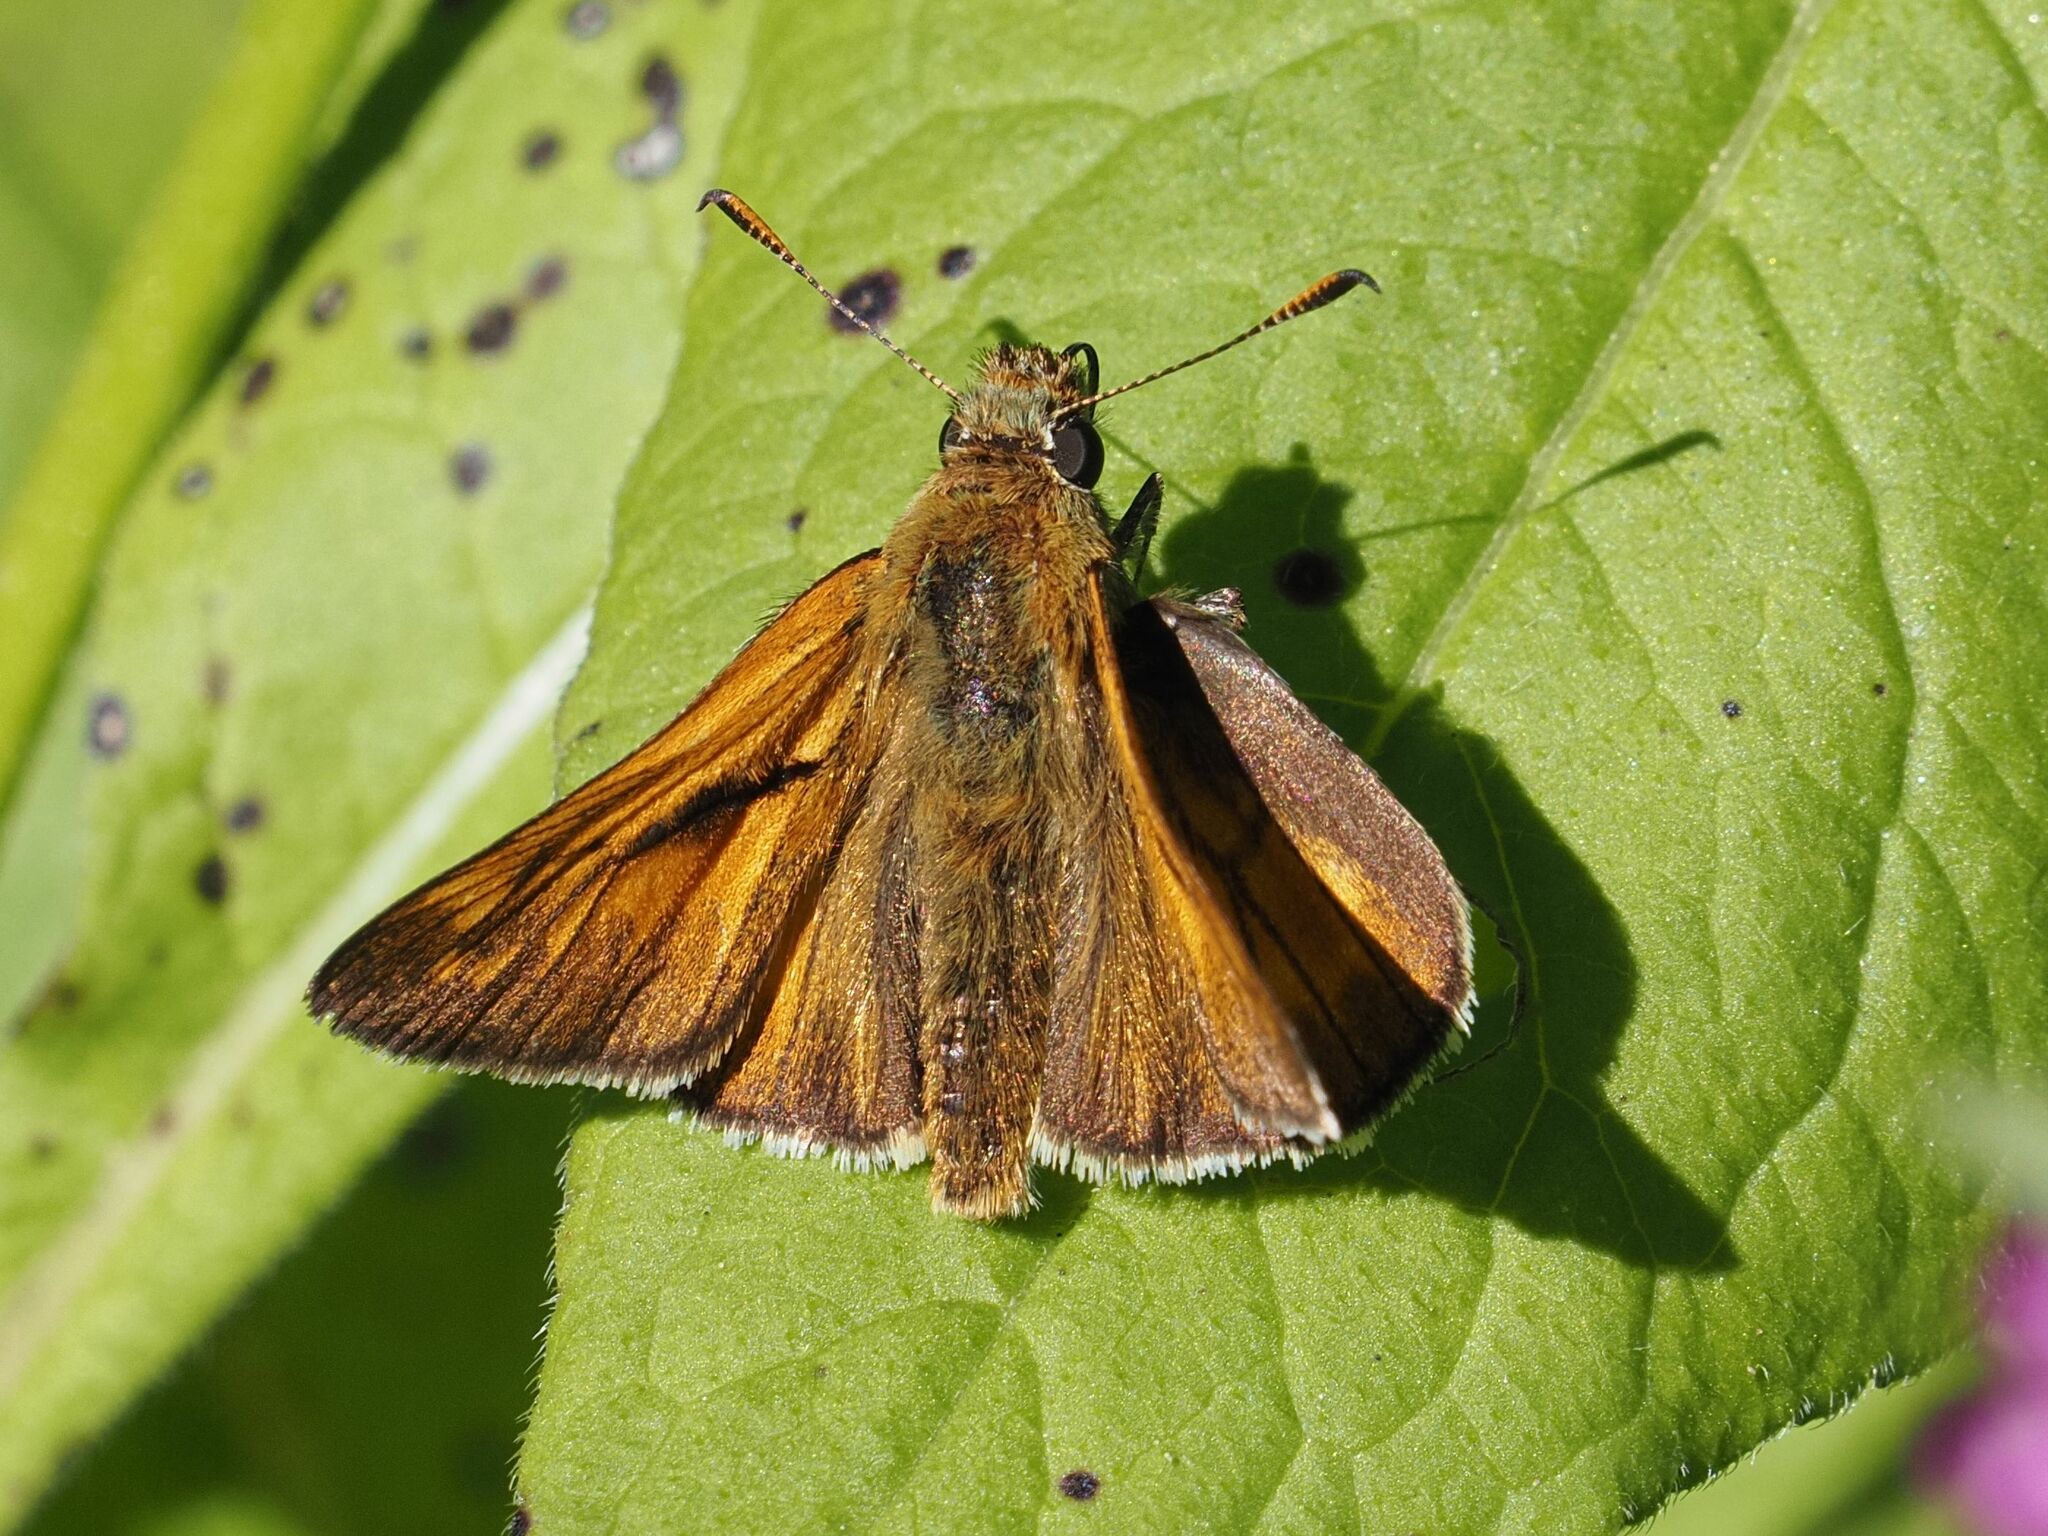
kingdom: Animalia
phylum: Arthropoda
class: Insecta
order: Lepidoptera
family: Hesperiidae
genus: Ochlodes
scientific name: Ochlodes venata
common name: Large skipper
